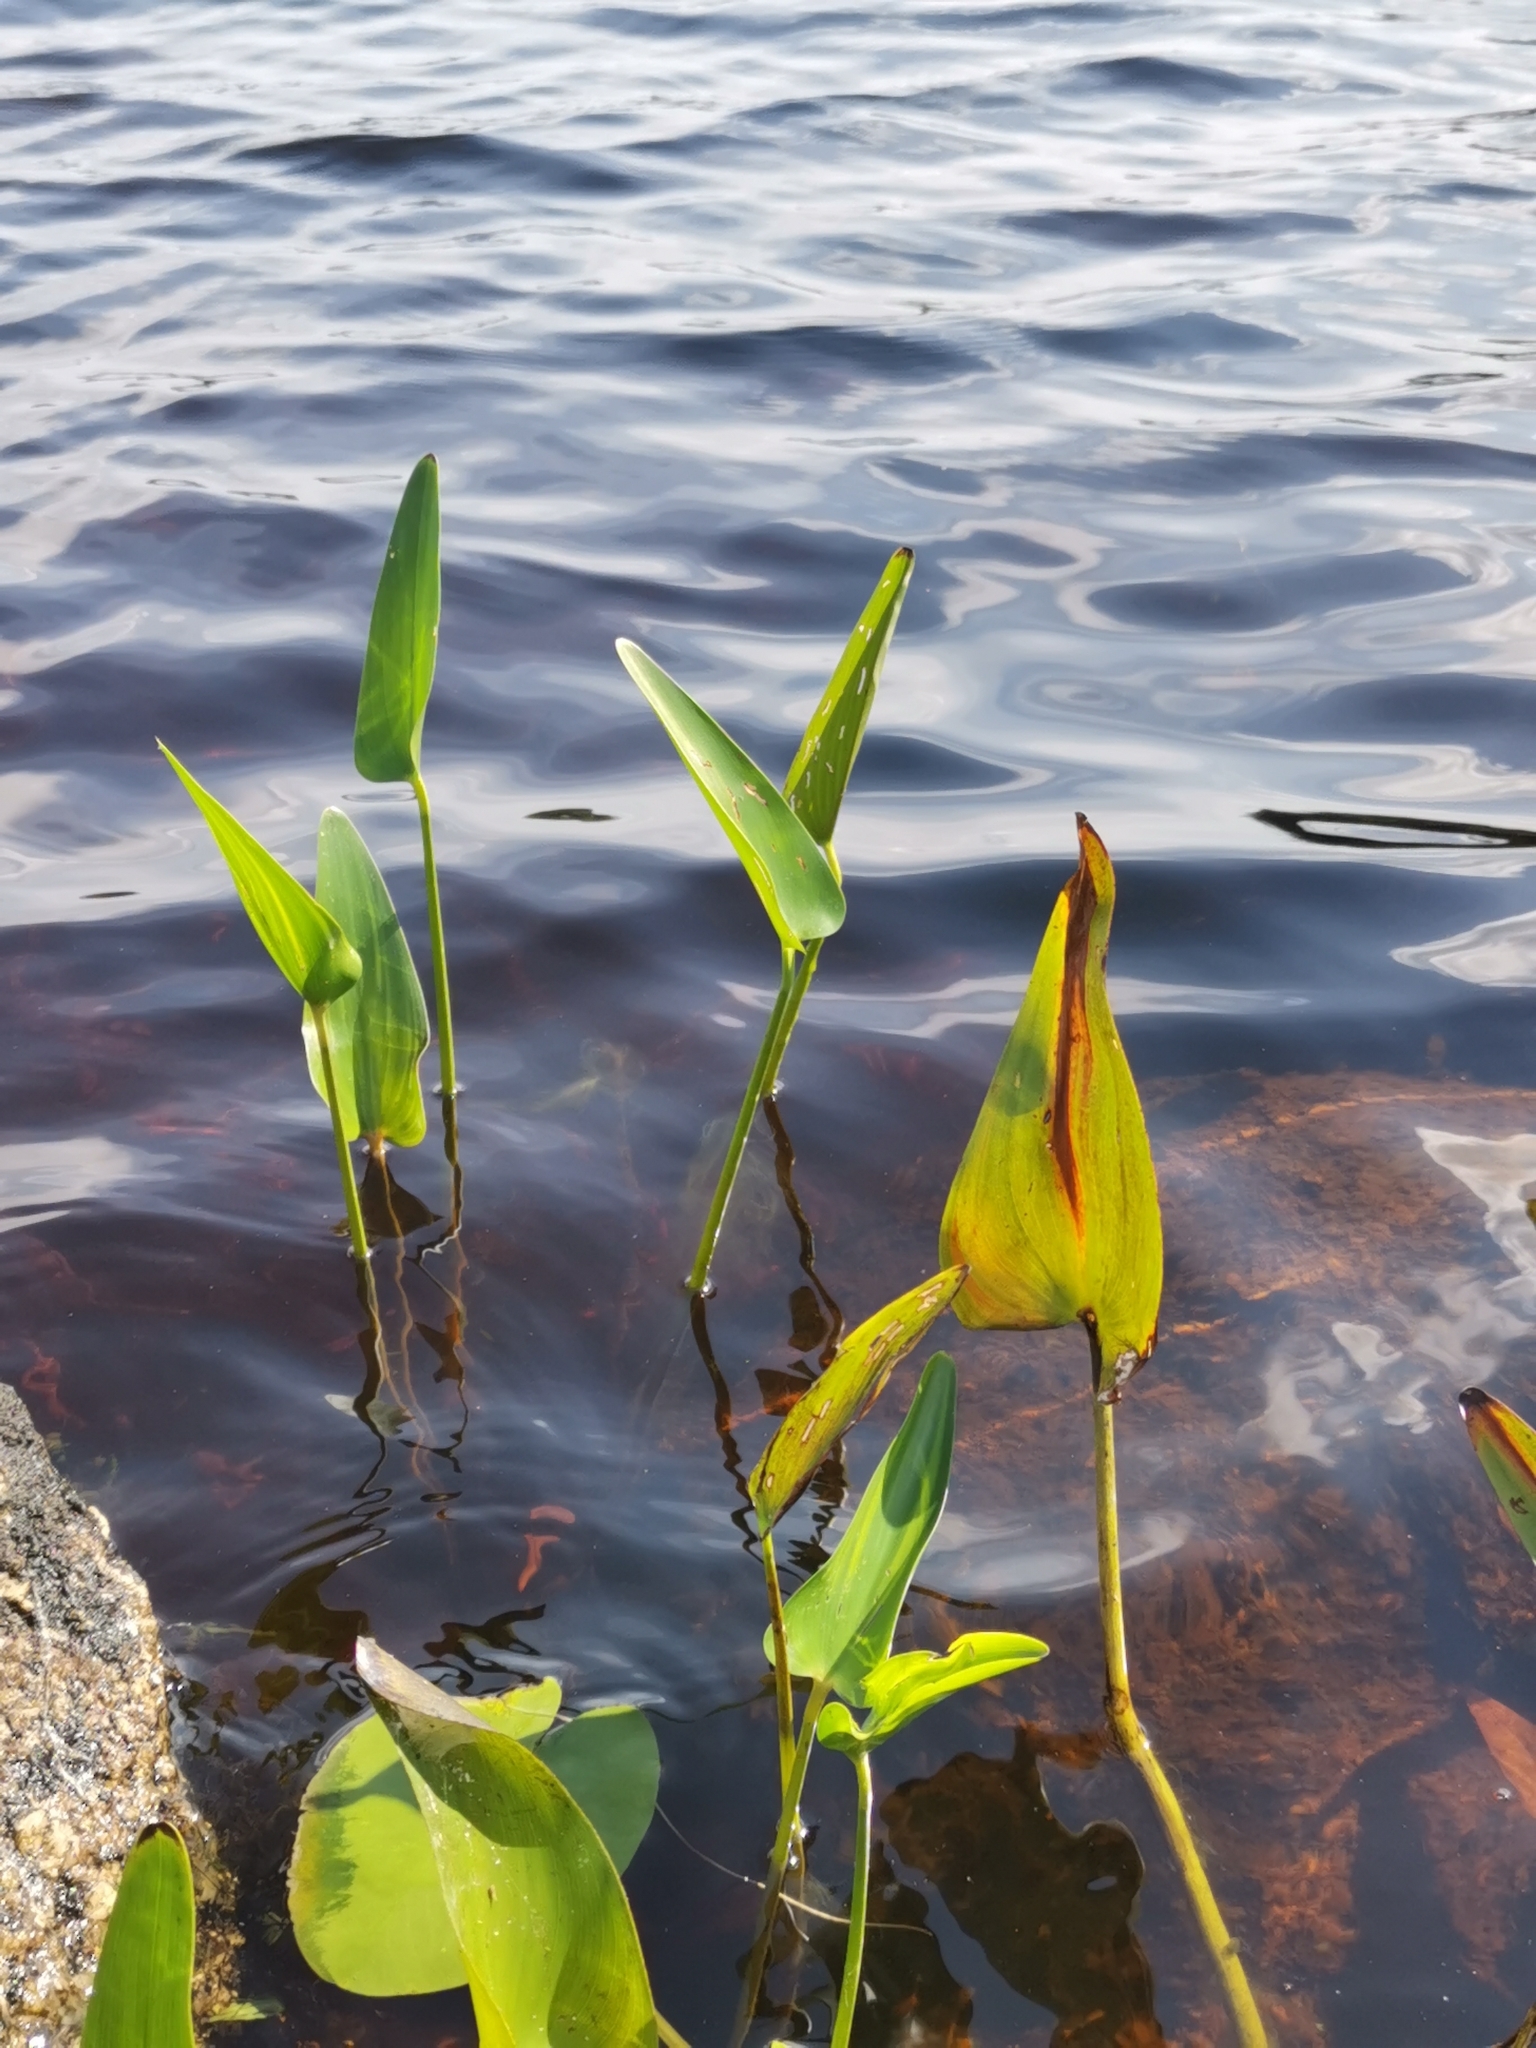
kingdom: Plantae
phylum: Tracheophyta
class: Liliopsida
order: Commelinales
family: Pontederiaceae
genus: Pontederia
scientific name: Pontederia cordata
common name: Pickerelweed
